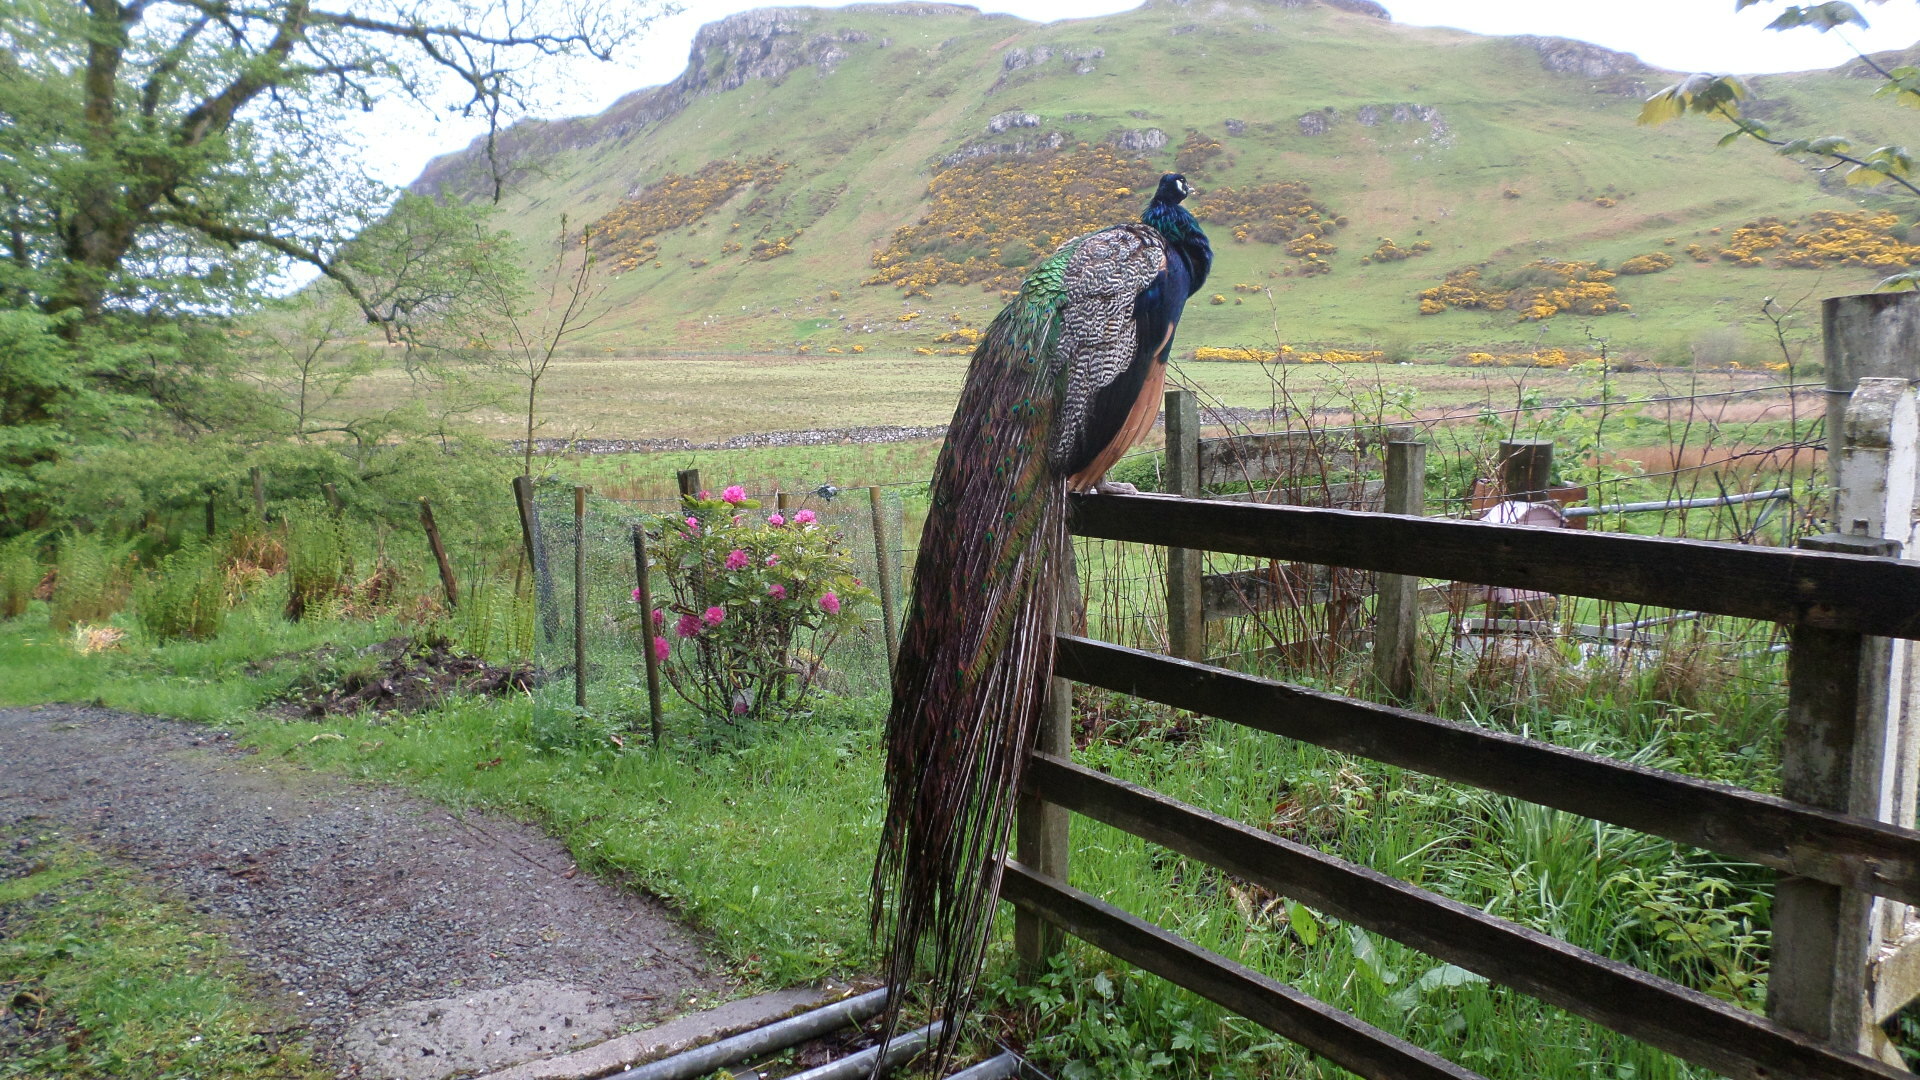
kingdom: Animalia
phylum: Chordata
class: Aves
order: Galliformes
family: Phasianidae
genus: Pavo
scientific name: Pavo cristatus
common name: Indian peafowl
